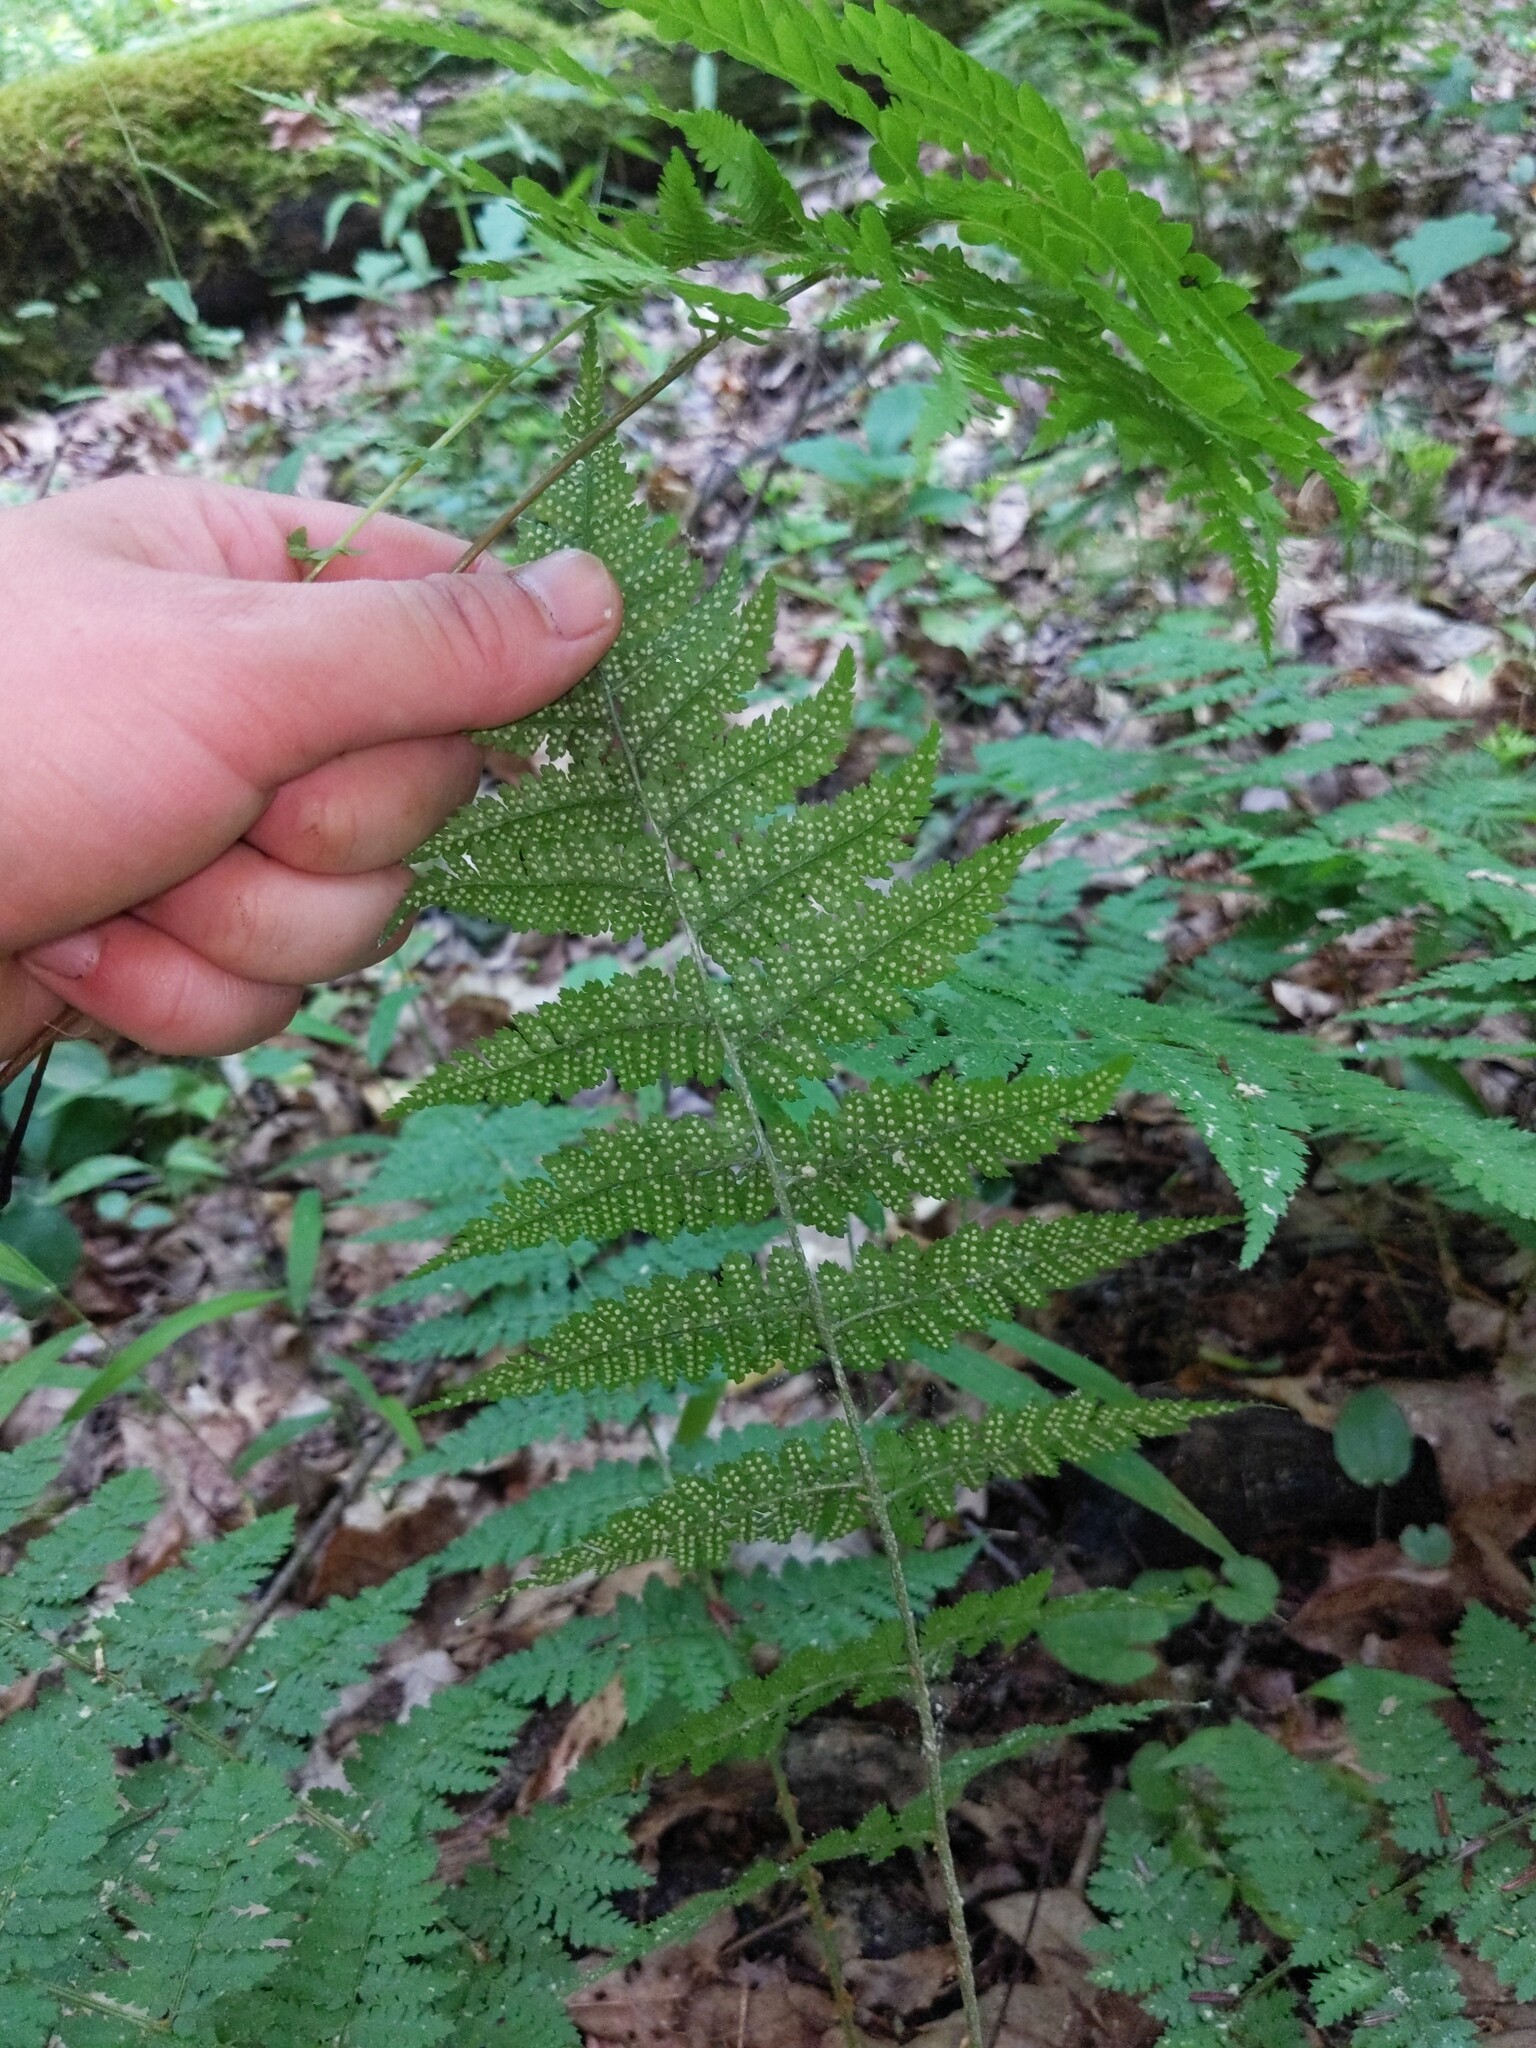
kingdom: Plantae
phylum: Tracheophyta
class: Polypodiopsida
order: Polypodiales
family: Dryopteridaceae
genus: Dryopteris
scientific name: Dryopteris intermedia
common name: Evergreen wood fern
